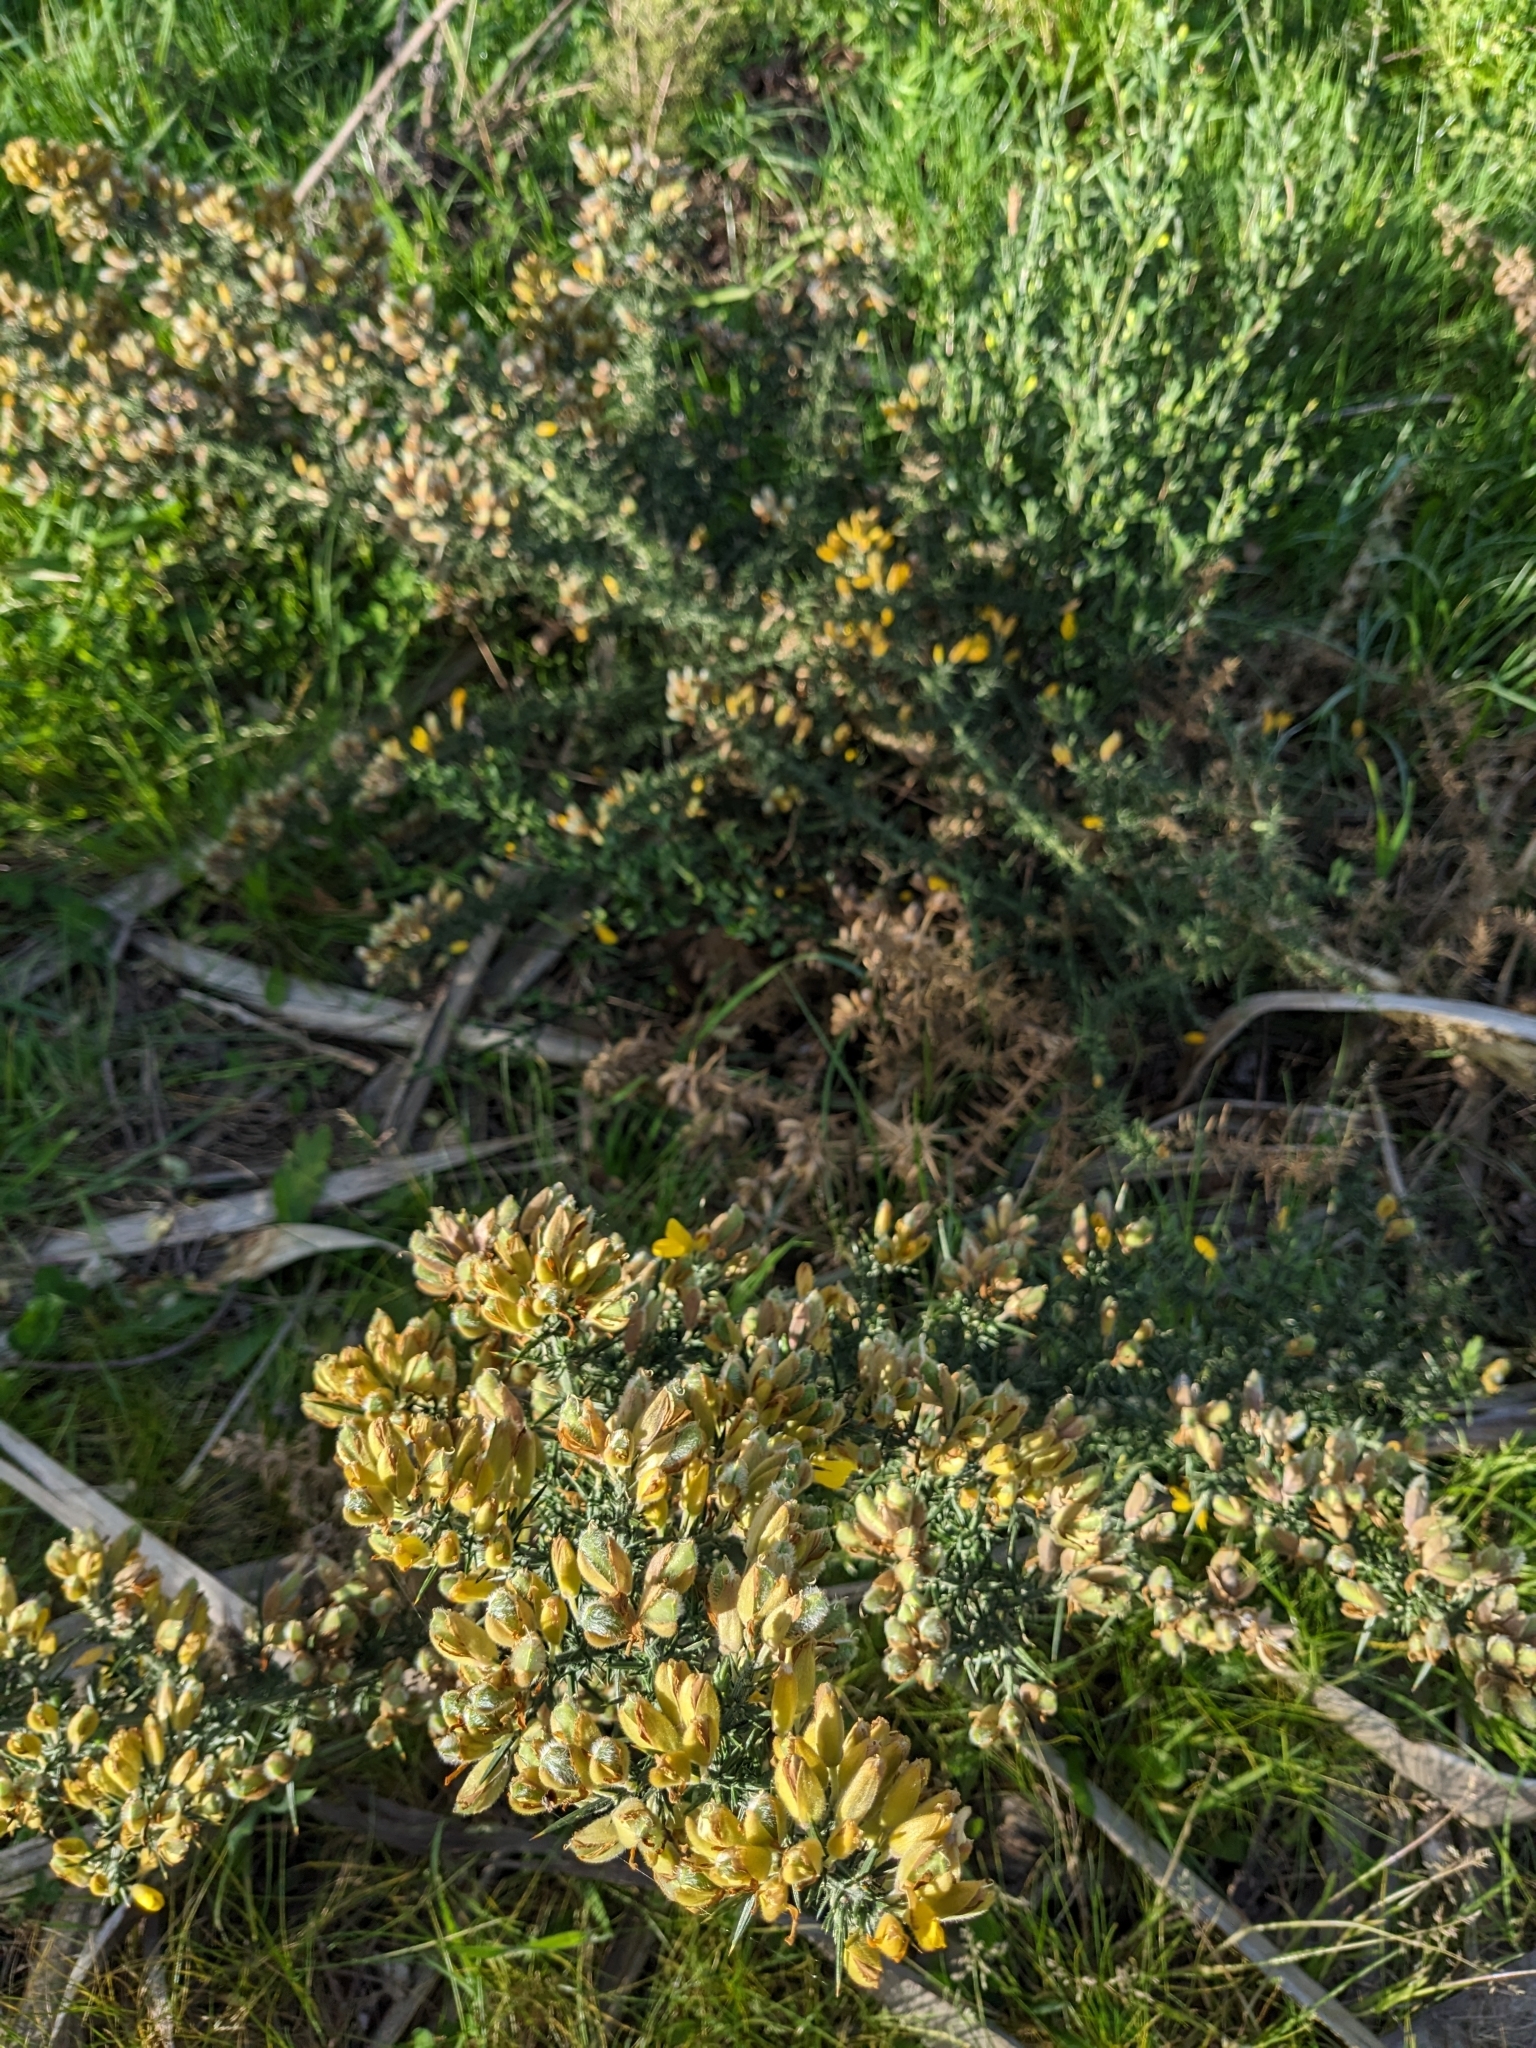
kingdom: Plantae
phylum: Tracheophyta
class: Magnoliopsida
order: Fabales
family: Fabaceae
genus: Ulex
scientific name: Ulex europaeus
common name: Common gorse
